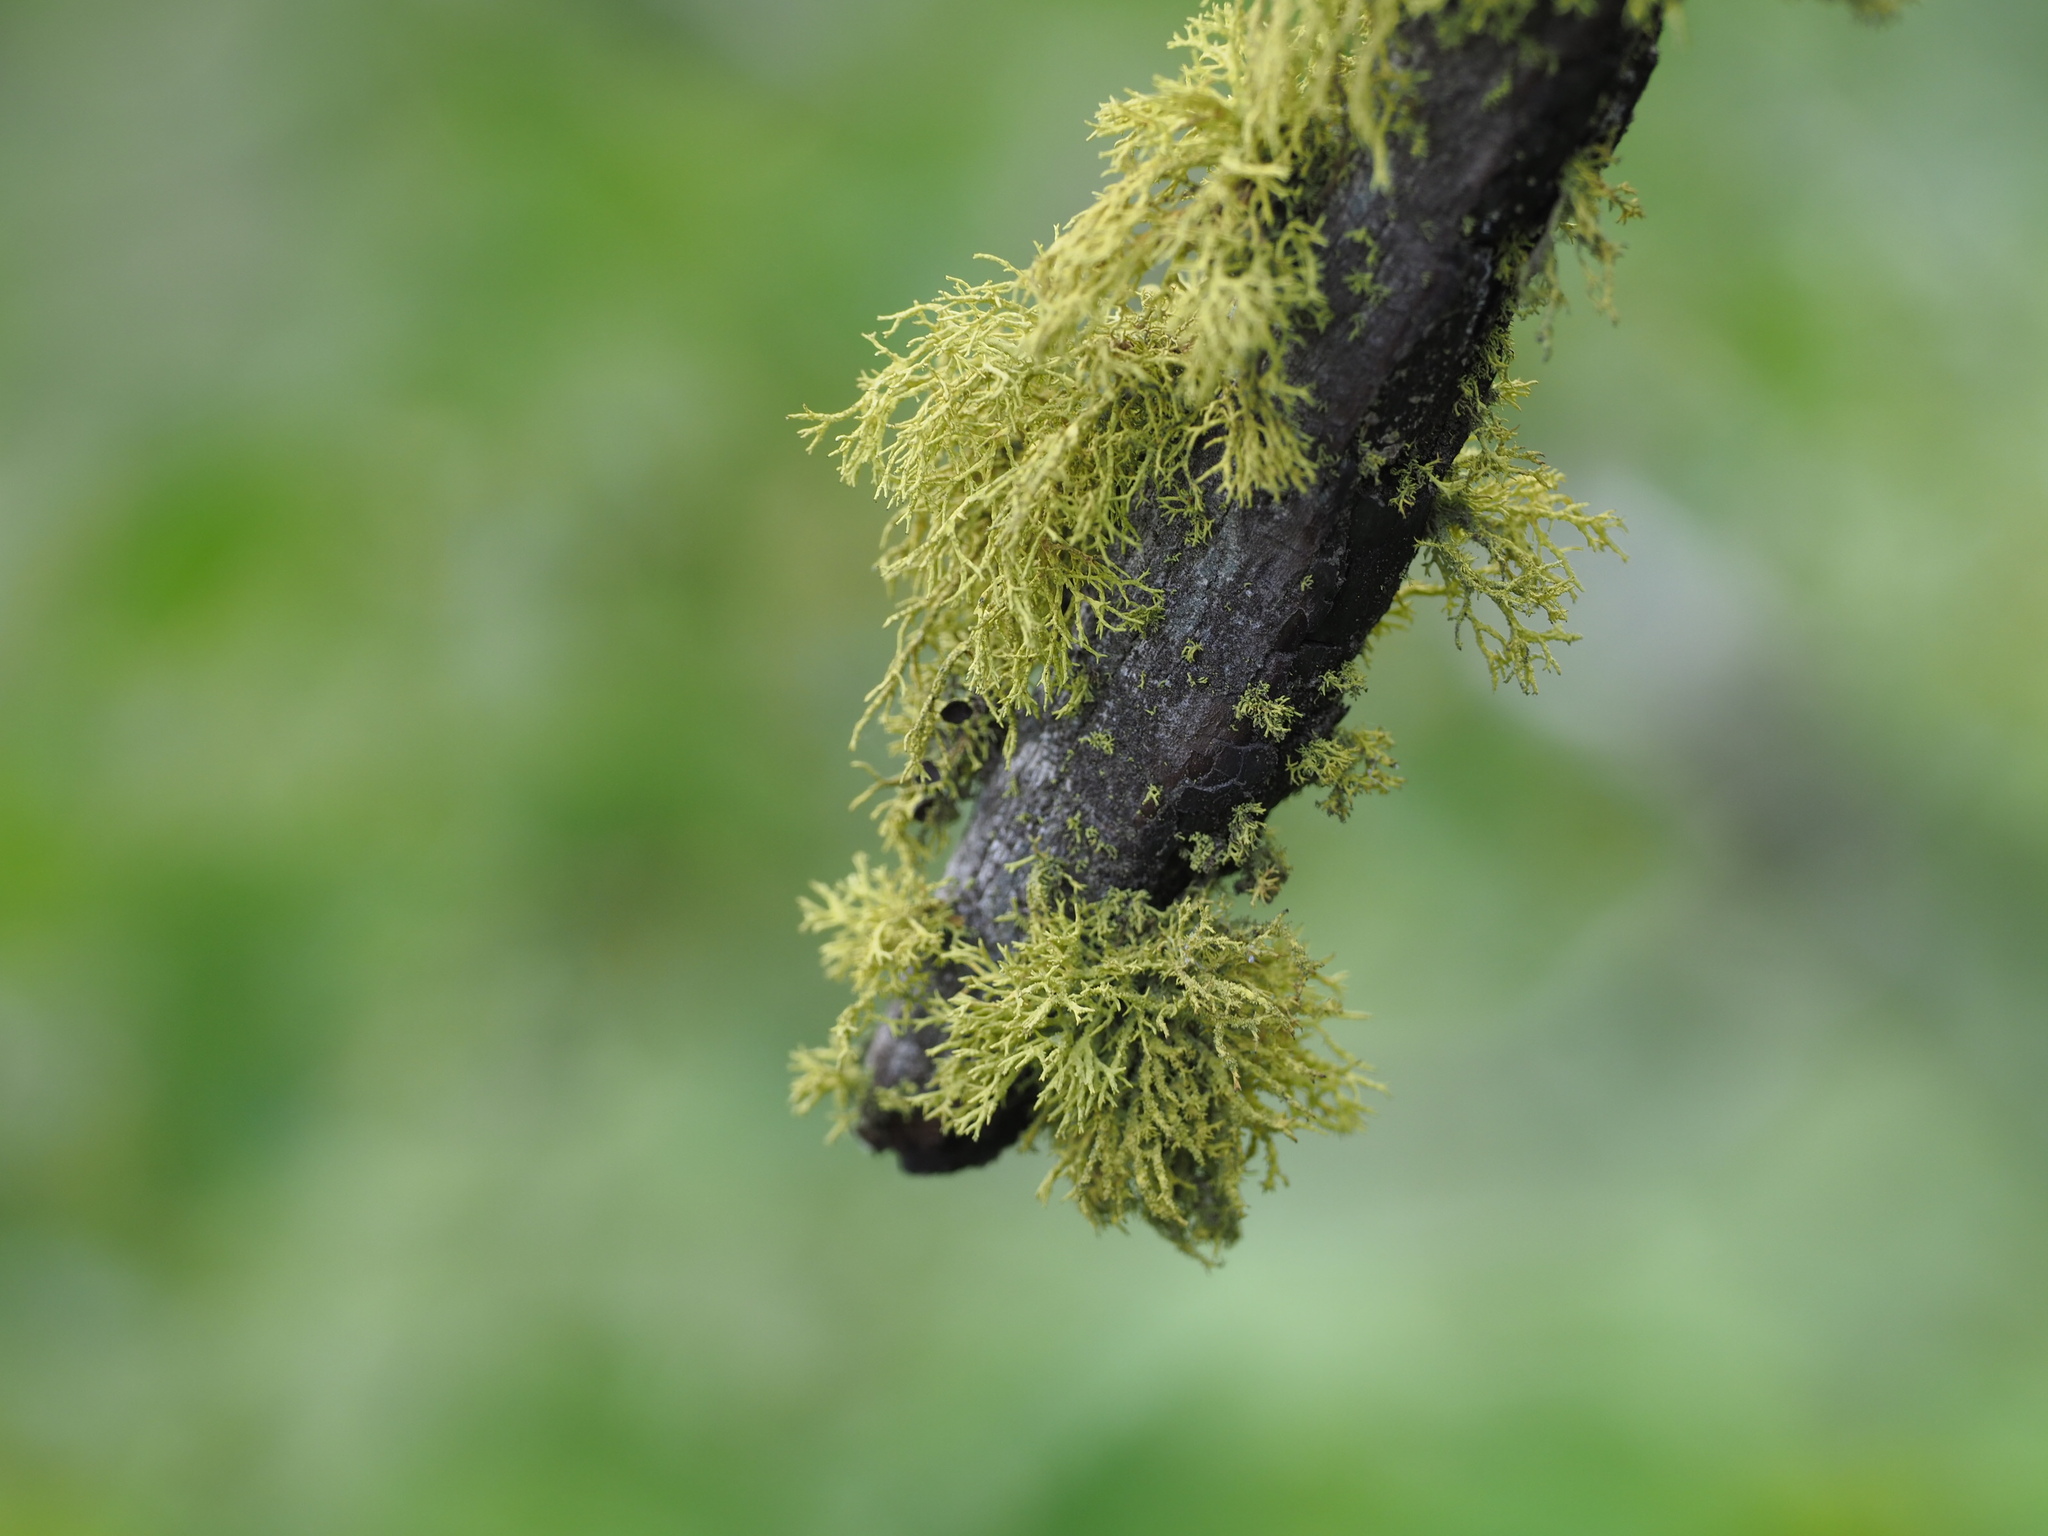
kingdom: Fungi
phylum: Ascomycota
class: Lecanoromycetes
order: Lecanorales
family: Parmeliaceae
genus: Letharia
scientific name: Letharia columbiana
